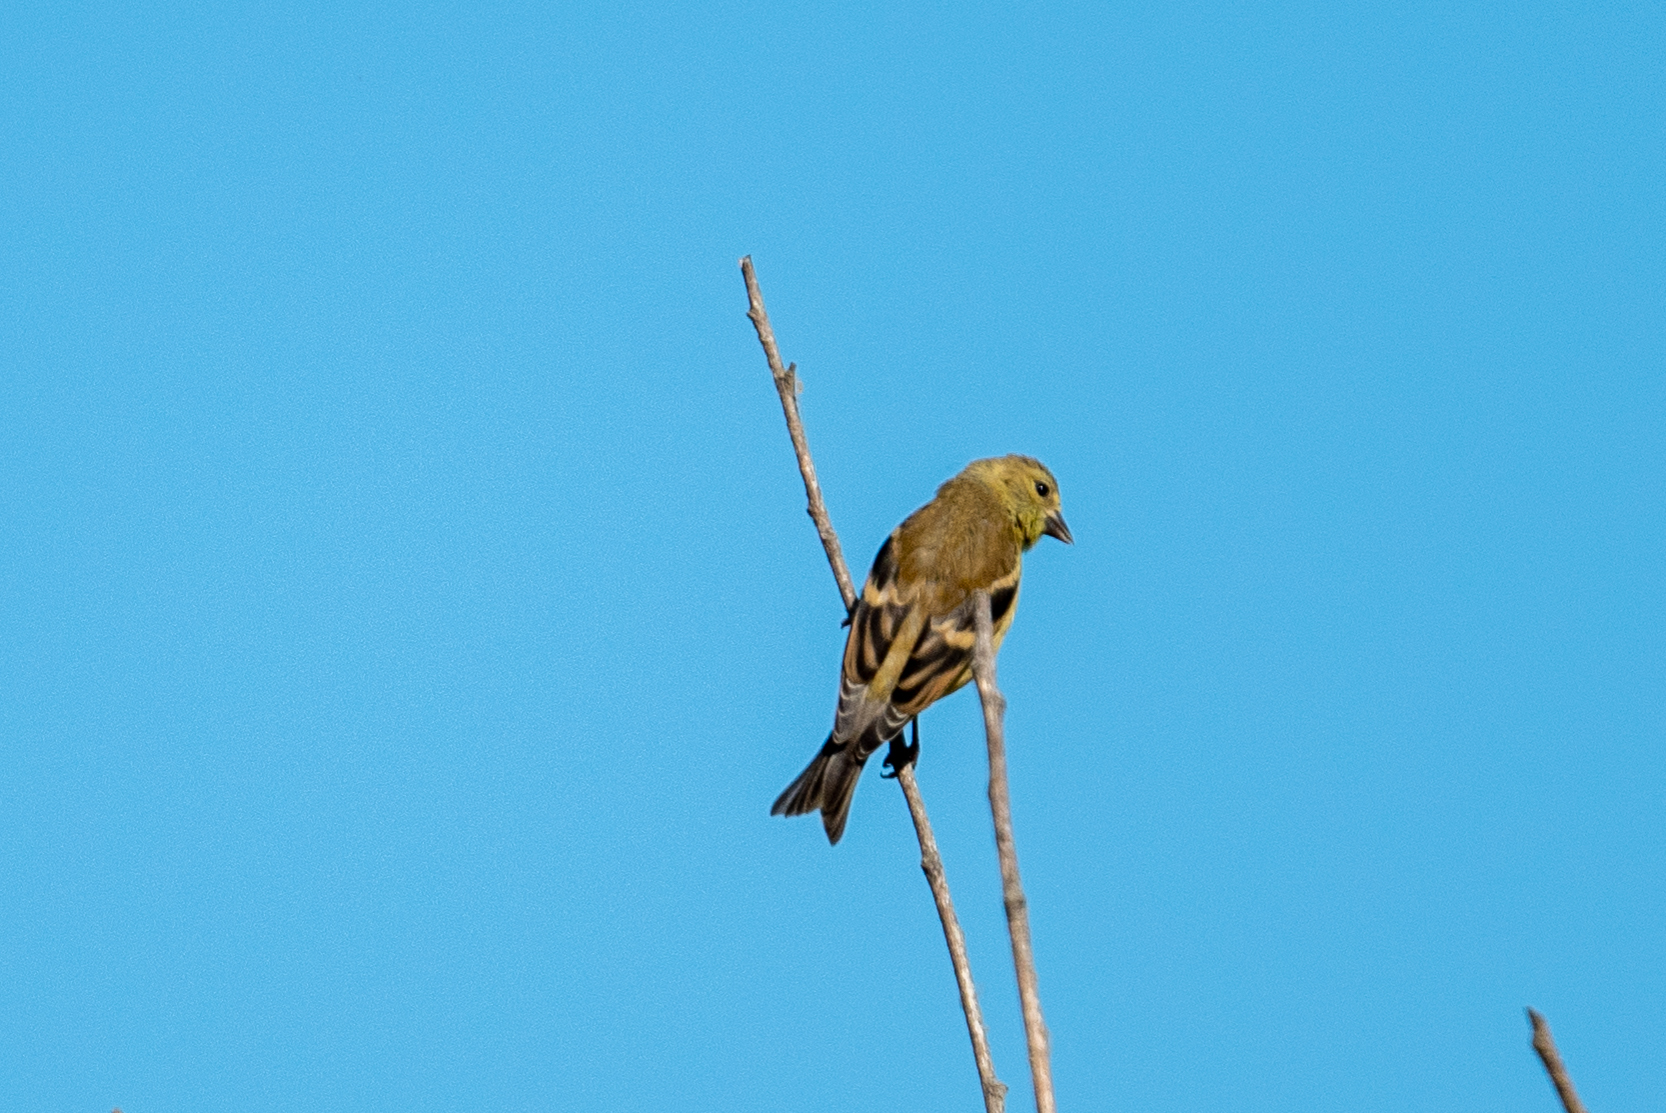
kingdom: Animalia
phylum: Chordata
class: Aves
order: Passeriformes
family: Fringillidae
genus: Spinus
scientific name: Spinus tristis
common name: American goldfinch
